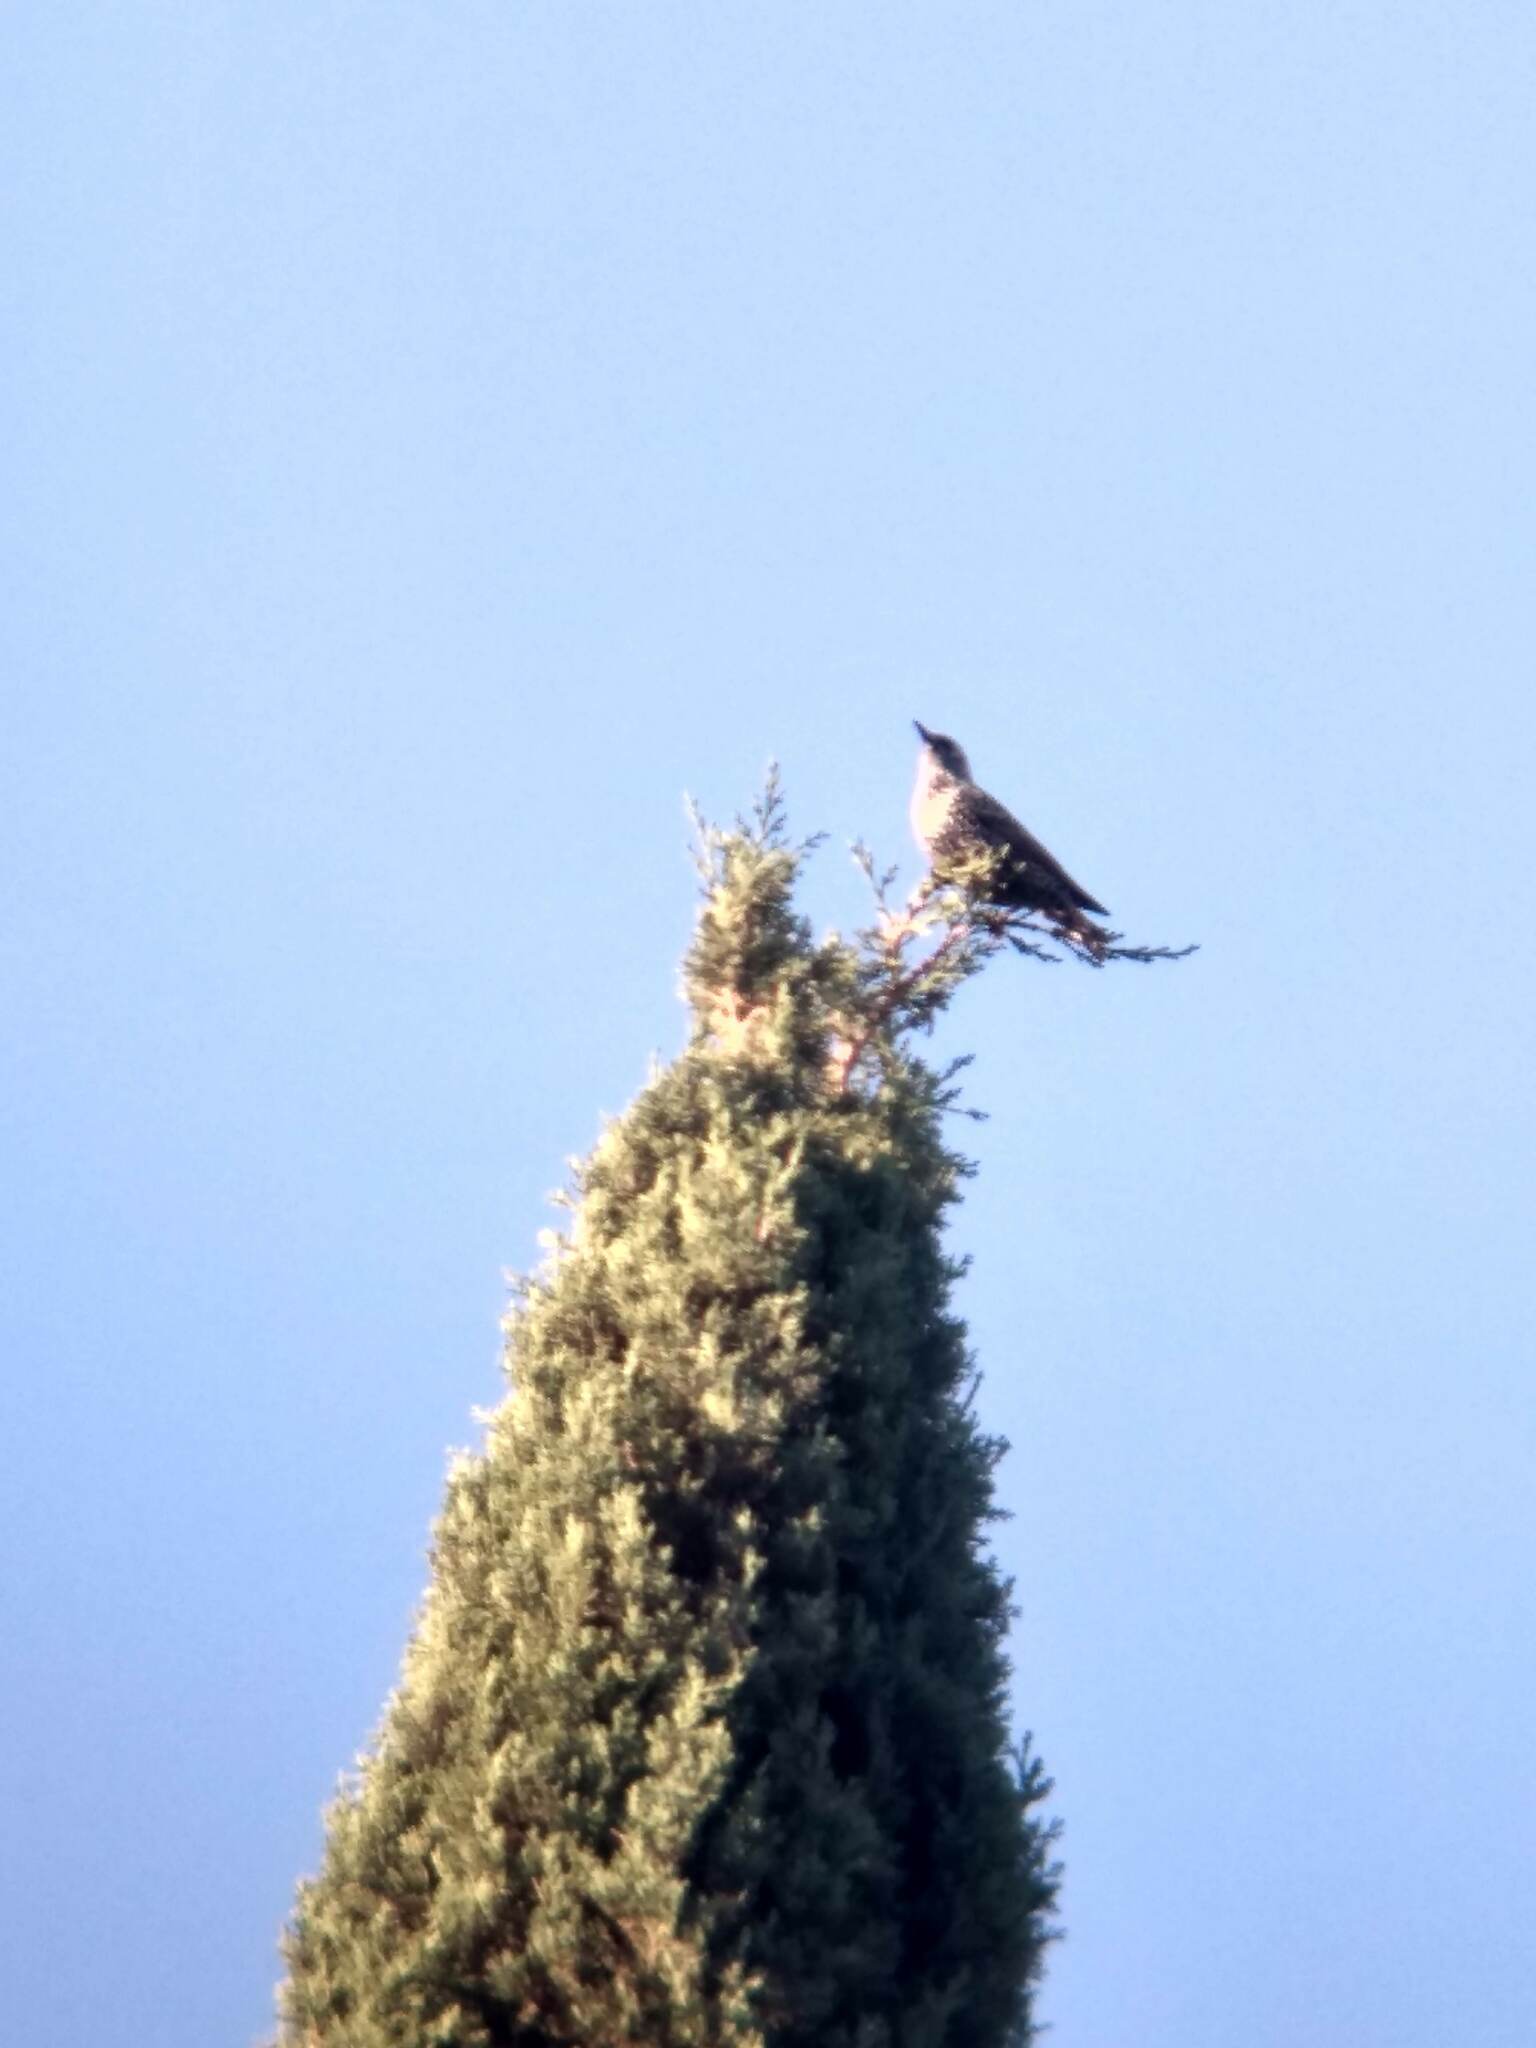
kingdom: Animalia
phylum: Chordata
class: Aves
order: Passeriformes
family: Sturnidae
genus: Sturnus
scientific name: Sturnus vulgaris
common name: Common starling
